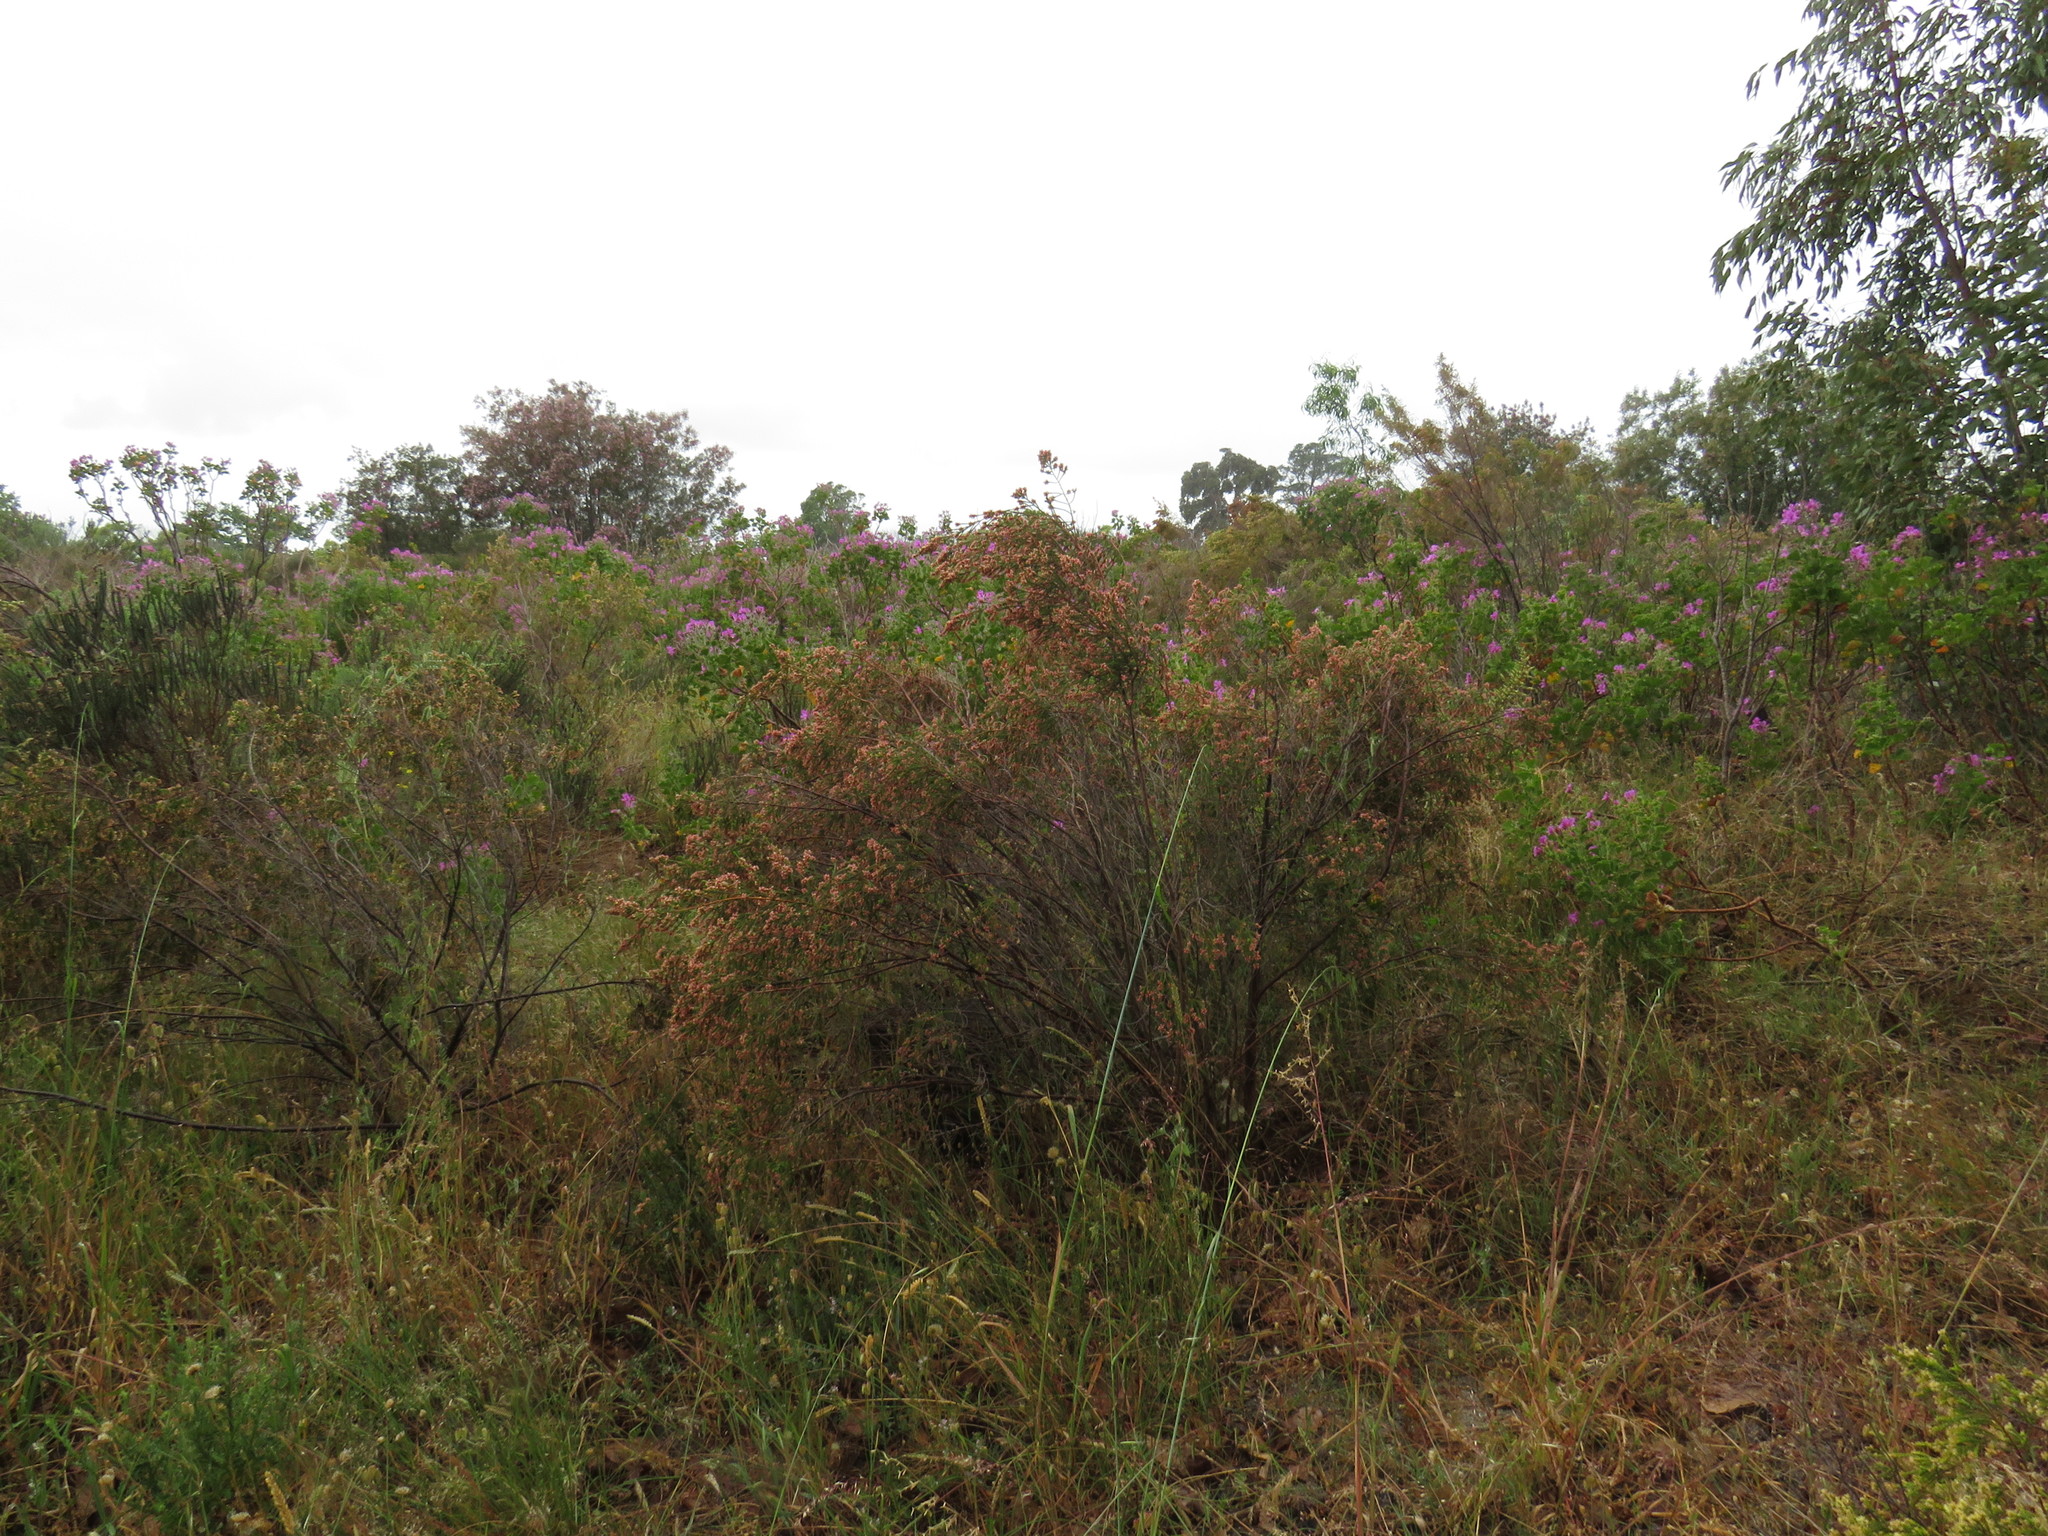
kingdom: Plantae
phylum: Tracheophyta
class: Magnoliopsida
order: Malvales
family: Thymelaeaceae
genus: Passerina
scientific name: Passerina corymbosa
